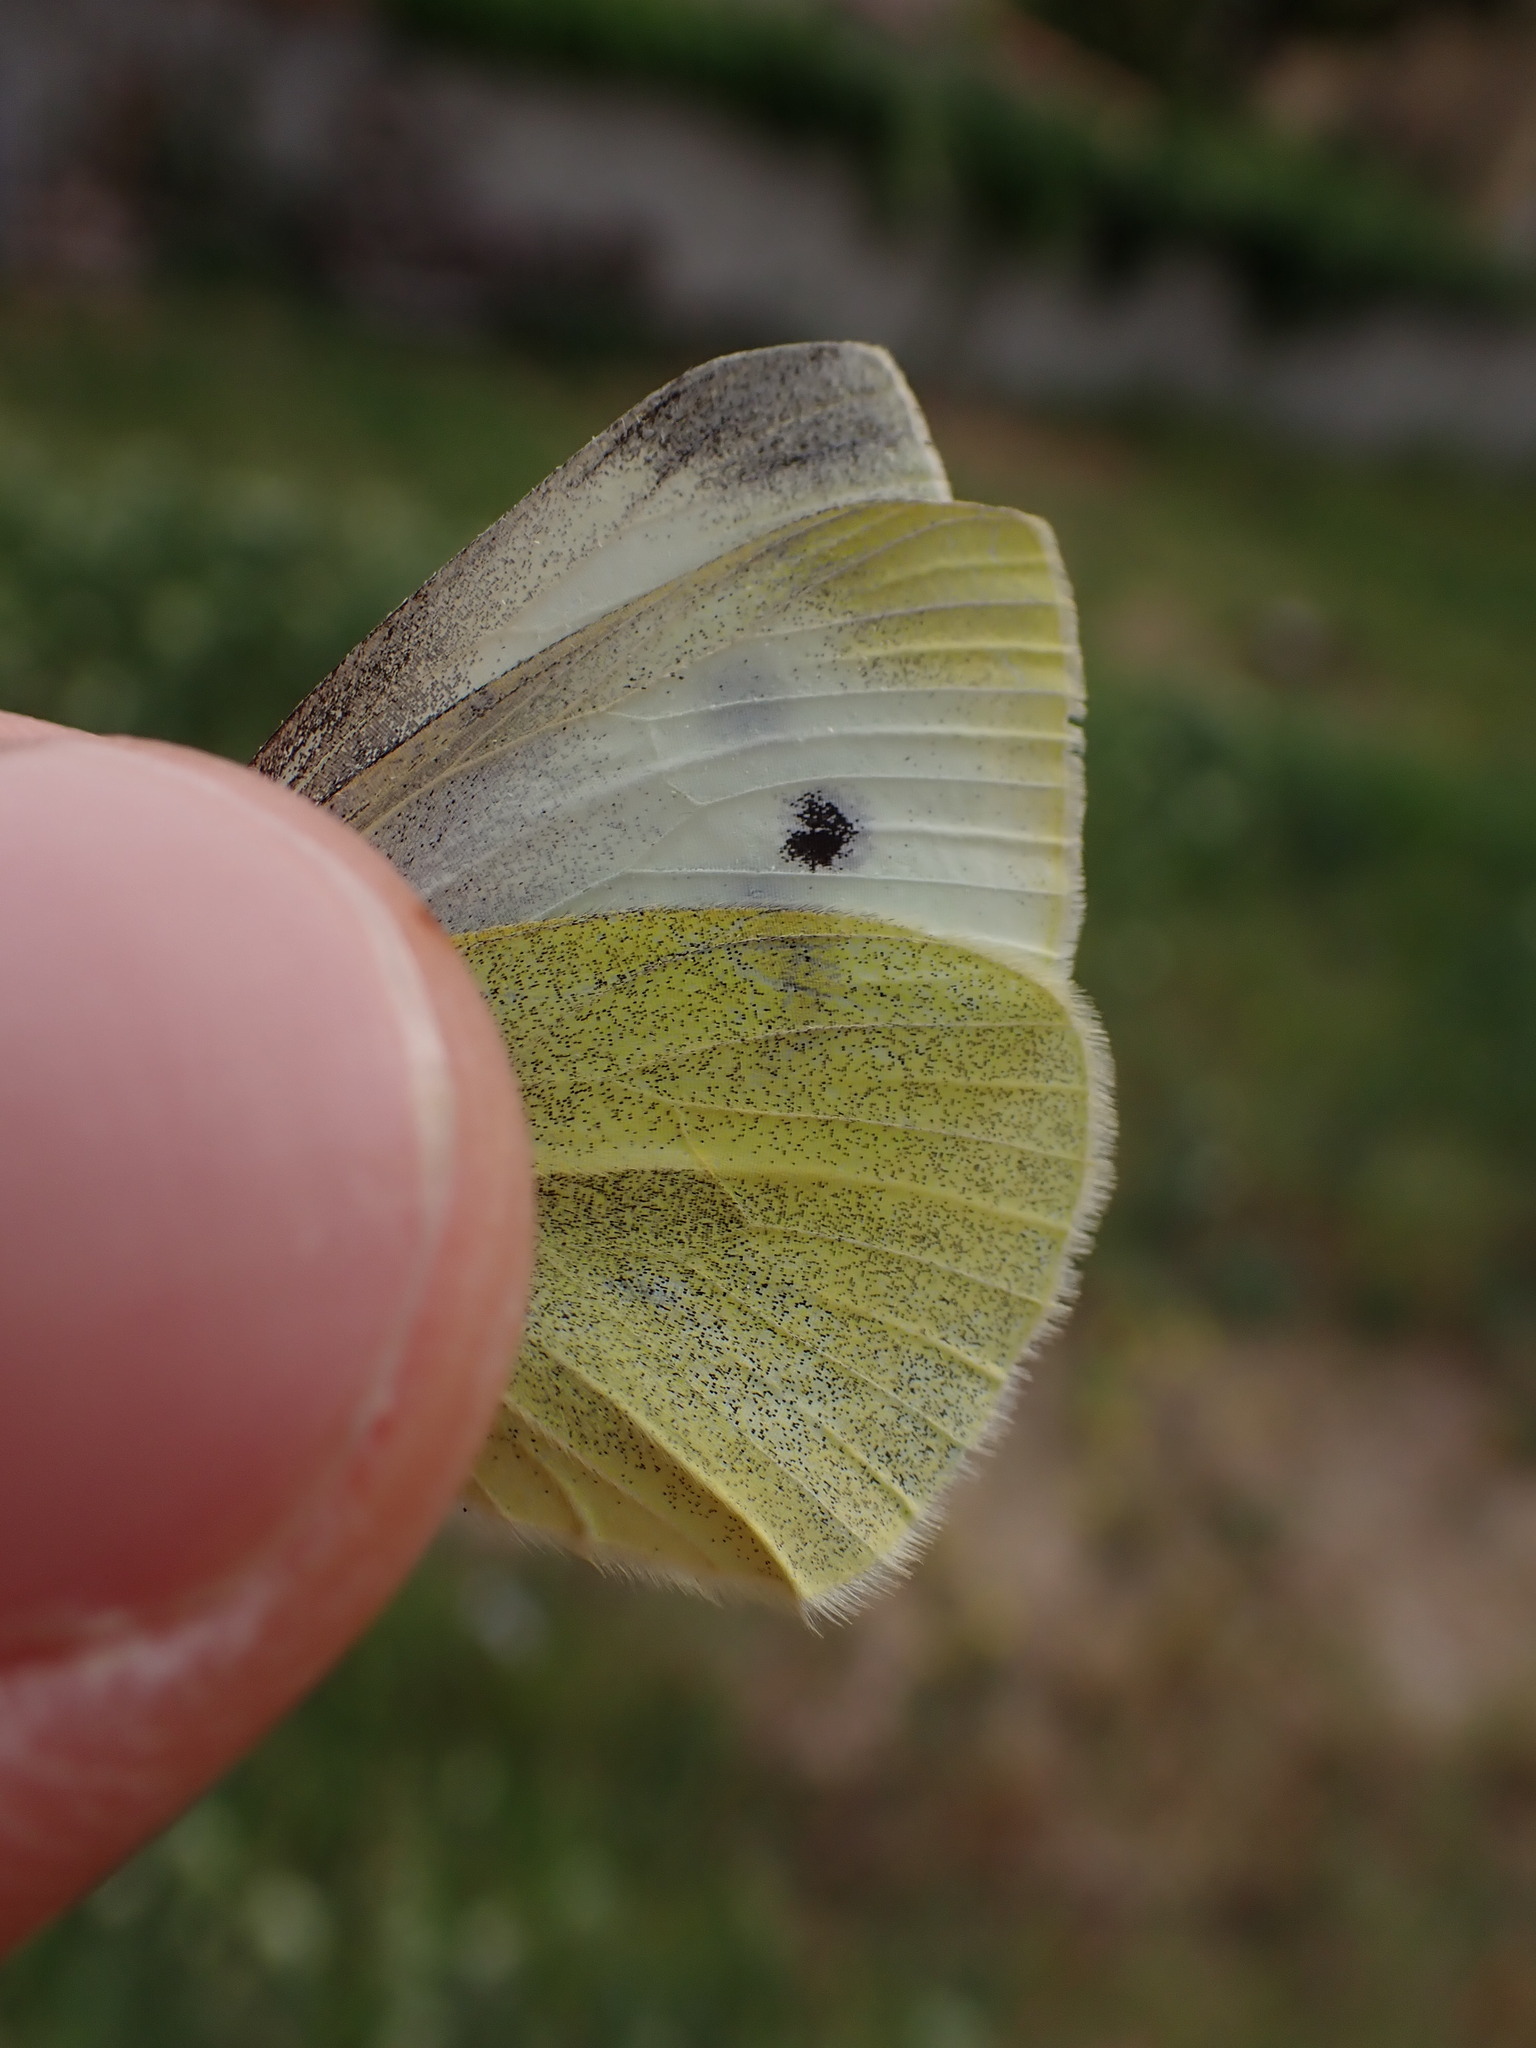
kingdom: Animalia
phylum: Arthropoda
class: Insecta
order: Lepidoptera
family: Pieridae
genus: Pieris
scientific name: Pieris rapae
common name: Small white
